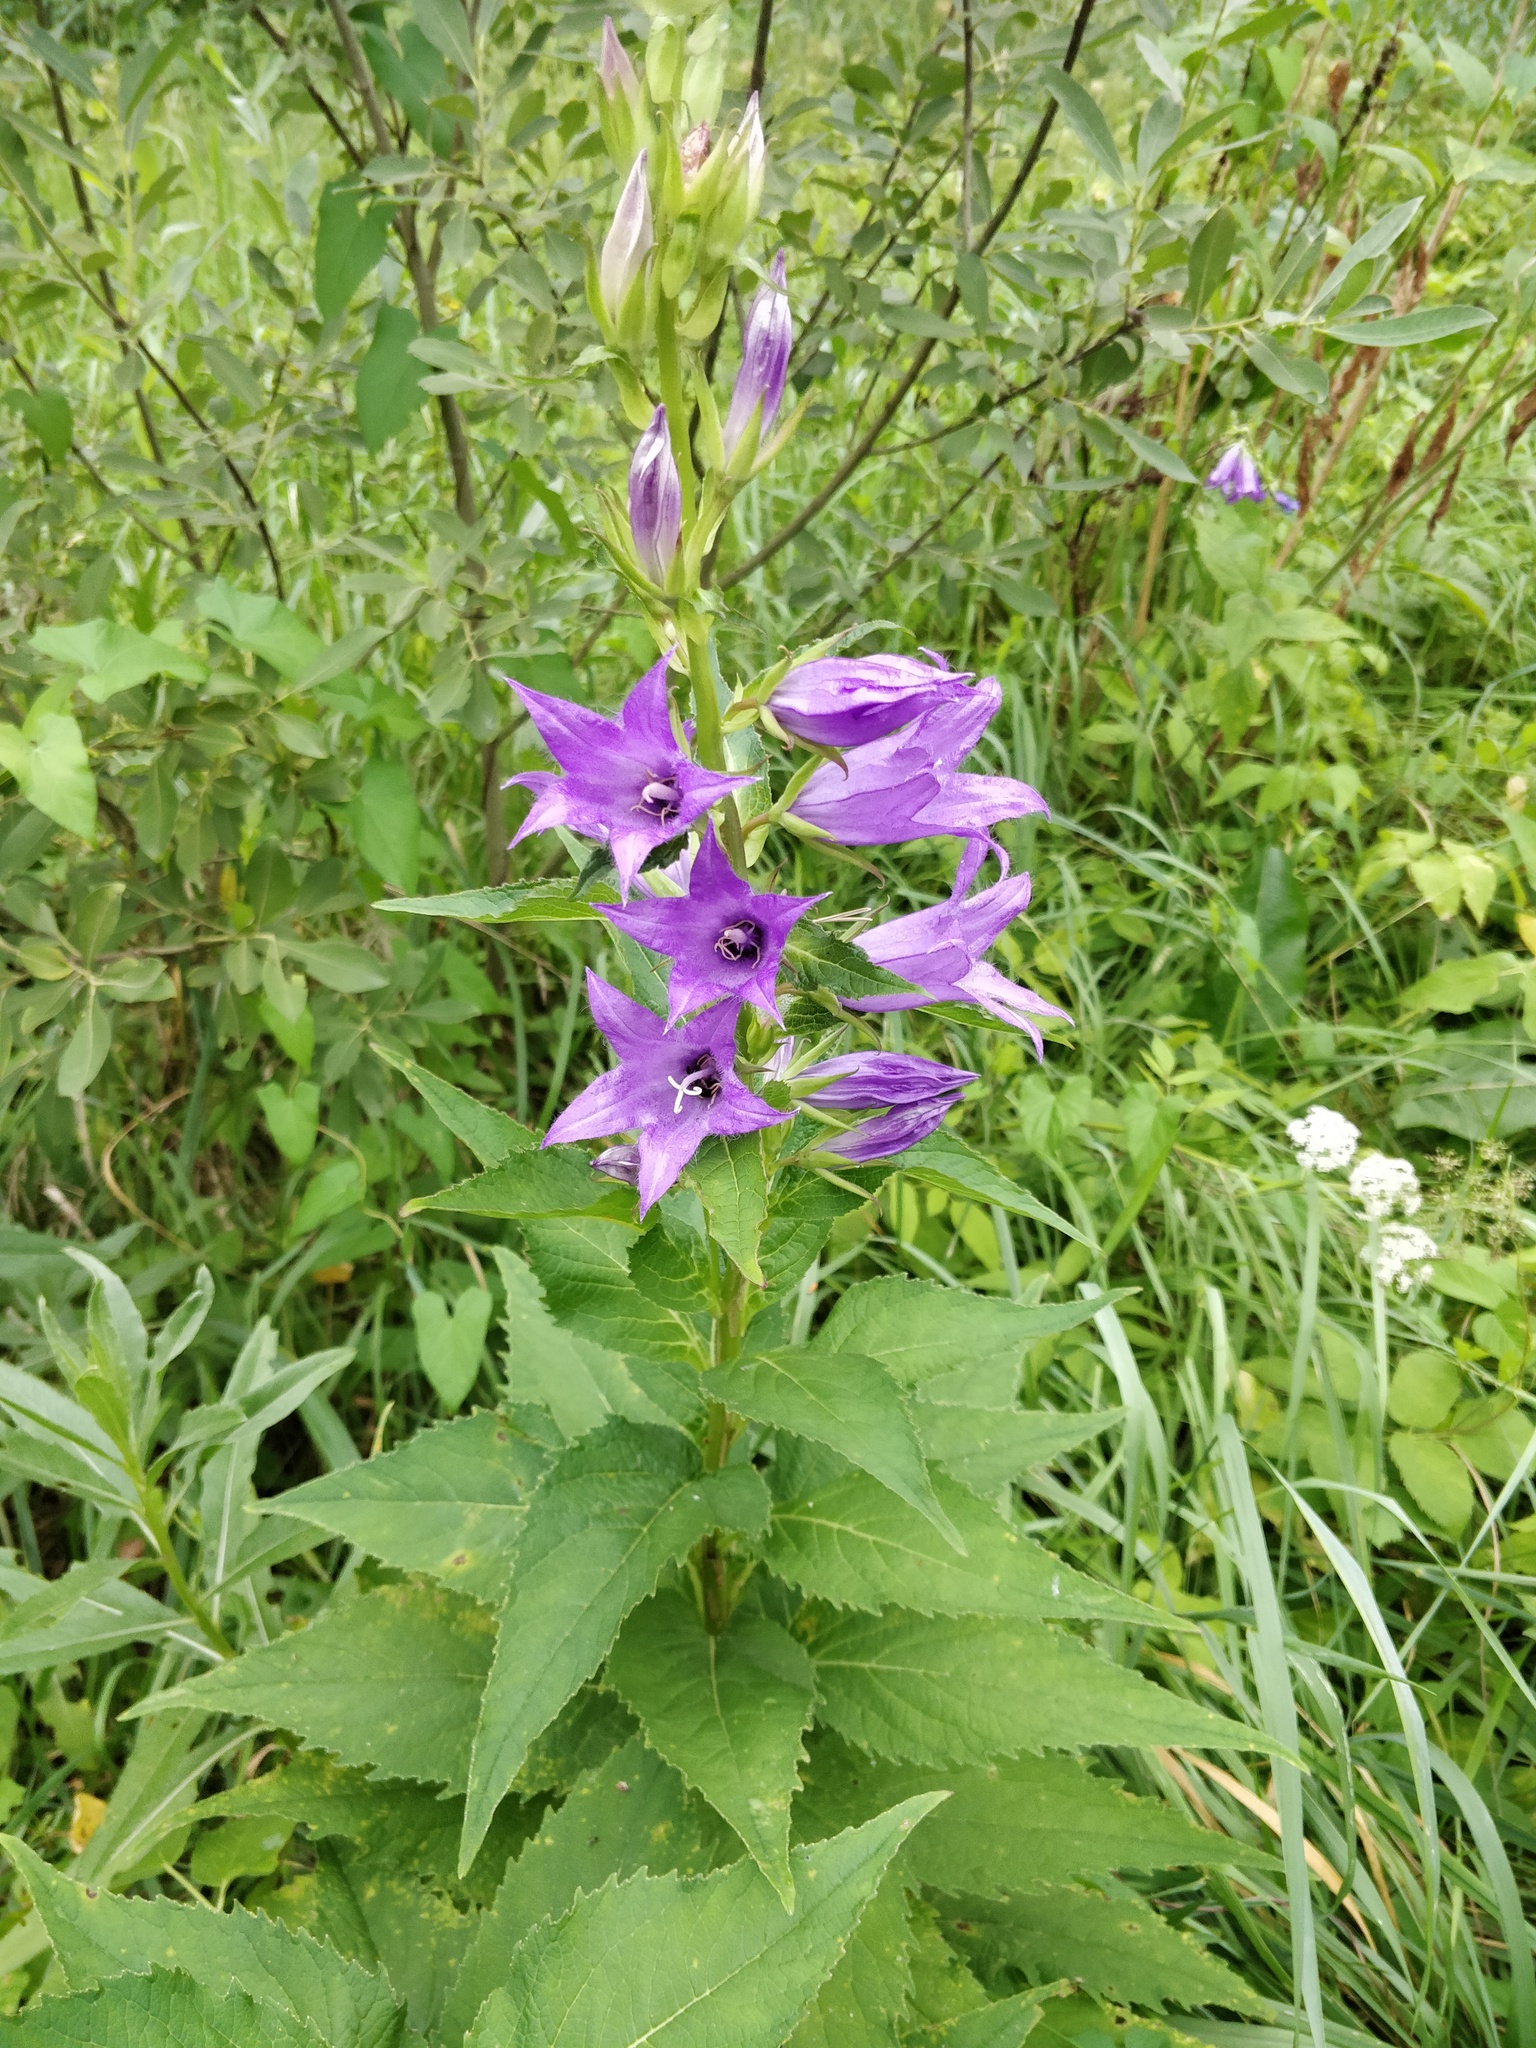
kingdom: Plantae
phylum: Tracheophyta
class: Magnoliopsida
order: Asterales
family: Campanulaceae
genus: Campanula
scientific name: Campanula latifolia
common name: Giant bellflower
